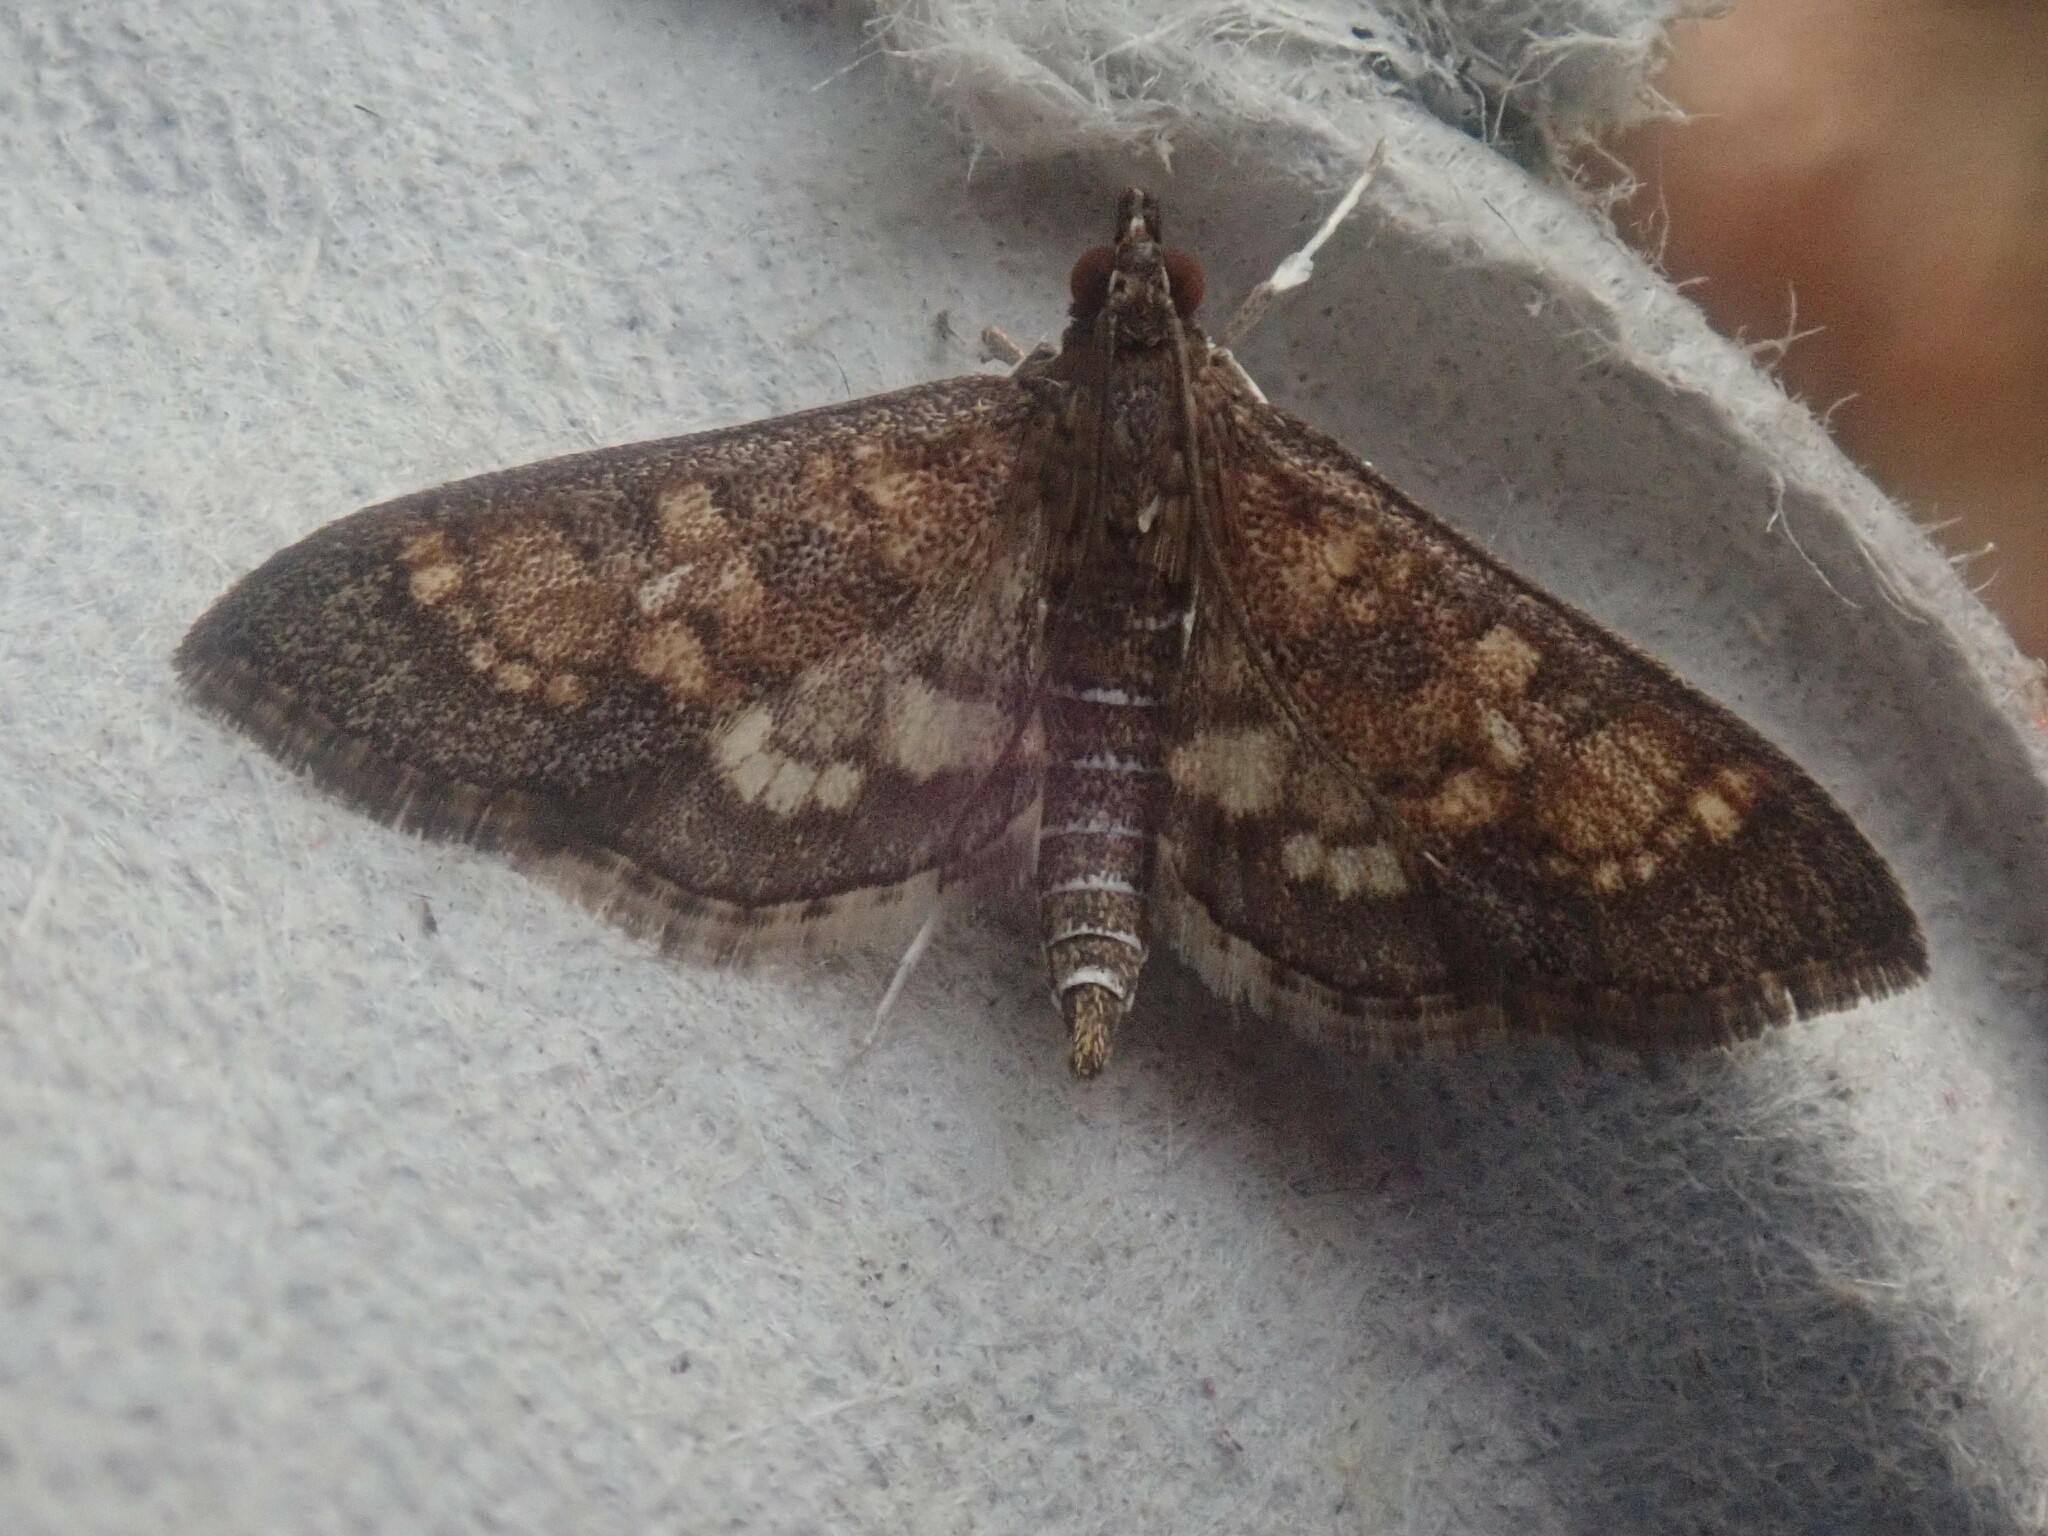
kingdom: Animalia
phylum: Arthropoda
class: Insecta
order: Lepidoptera
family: Crambidae
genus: Epipagis
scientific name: Epipagis adipaloides
